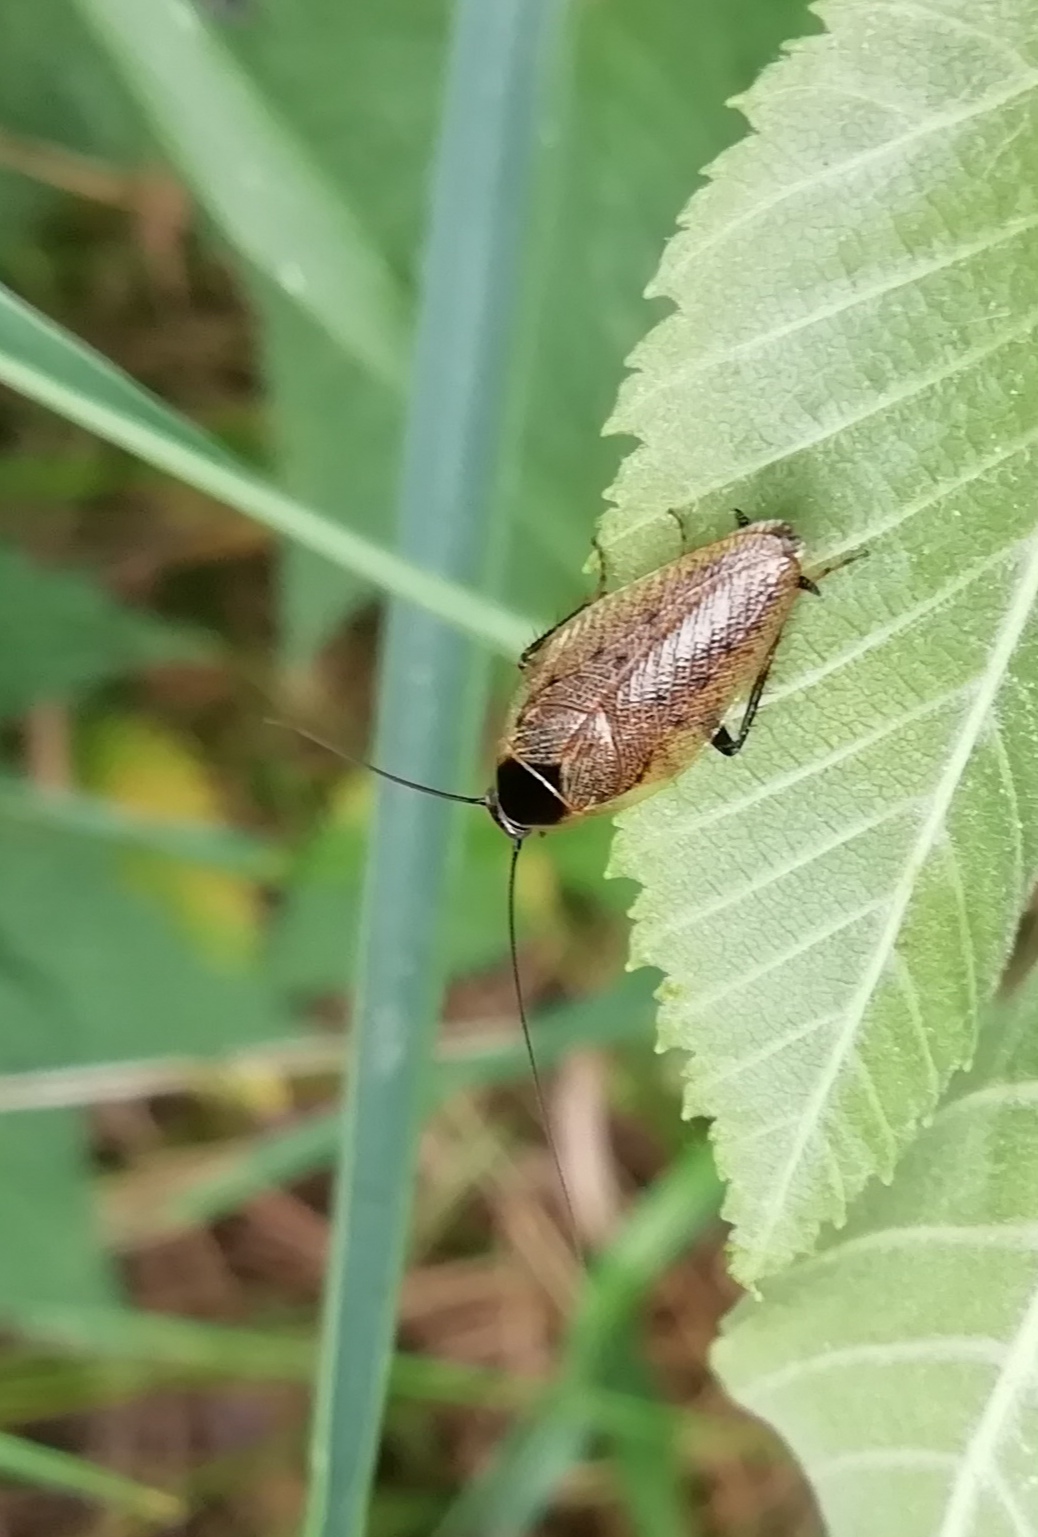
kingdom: Animalia
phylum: Arthropoda
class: Insecta
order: Blattodea
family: Ectobiidae
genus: Ectobius
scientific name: Ectobius lapponicus
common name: Dusky cockroach
